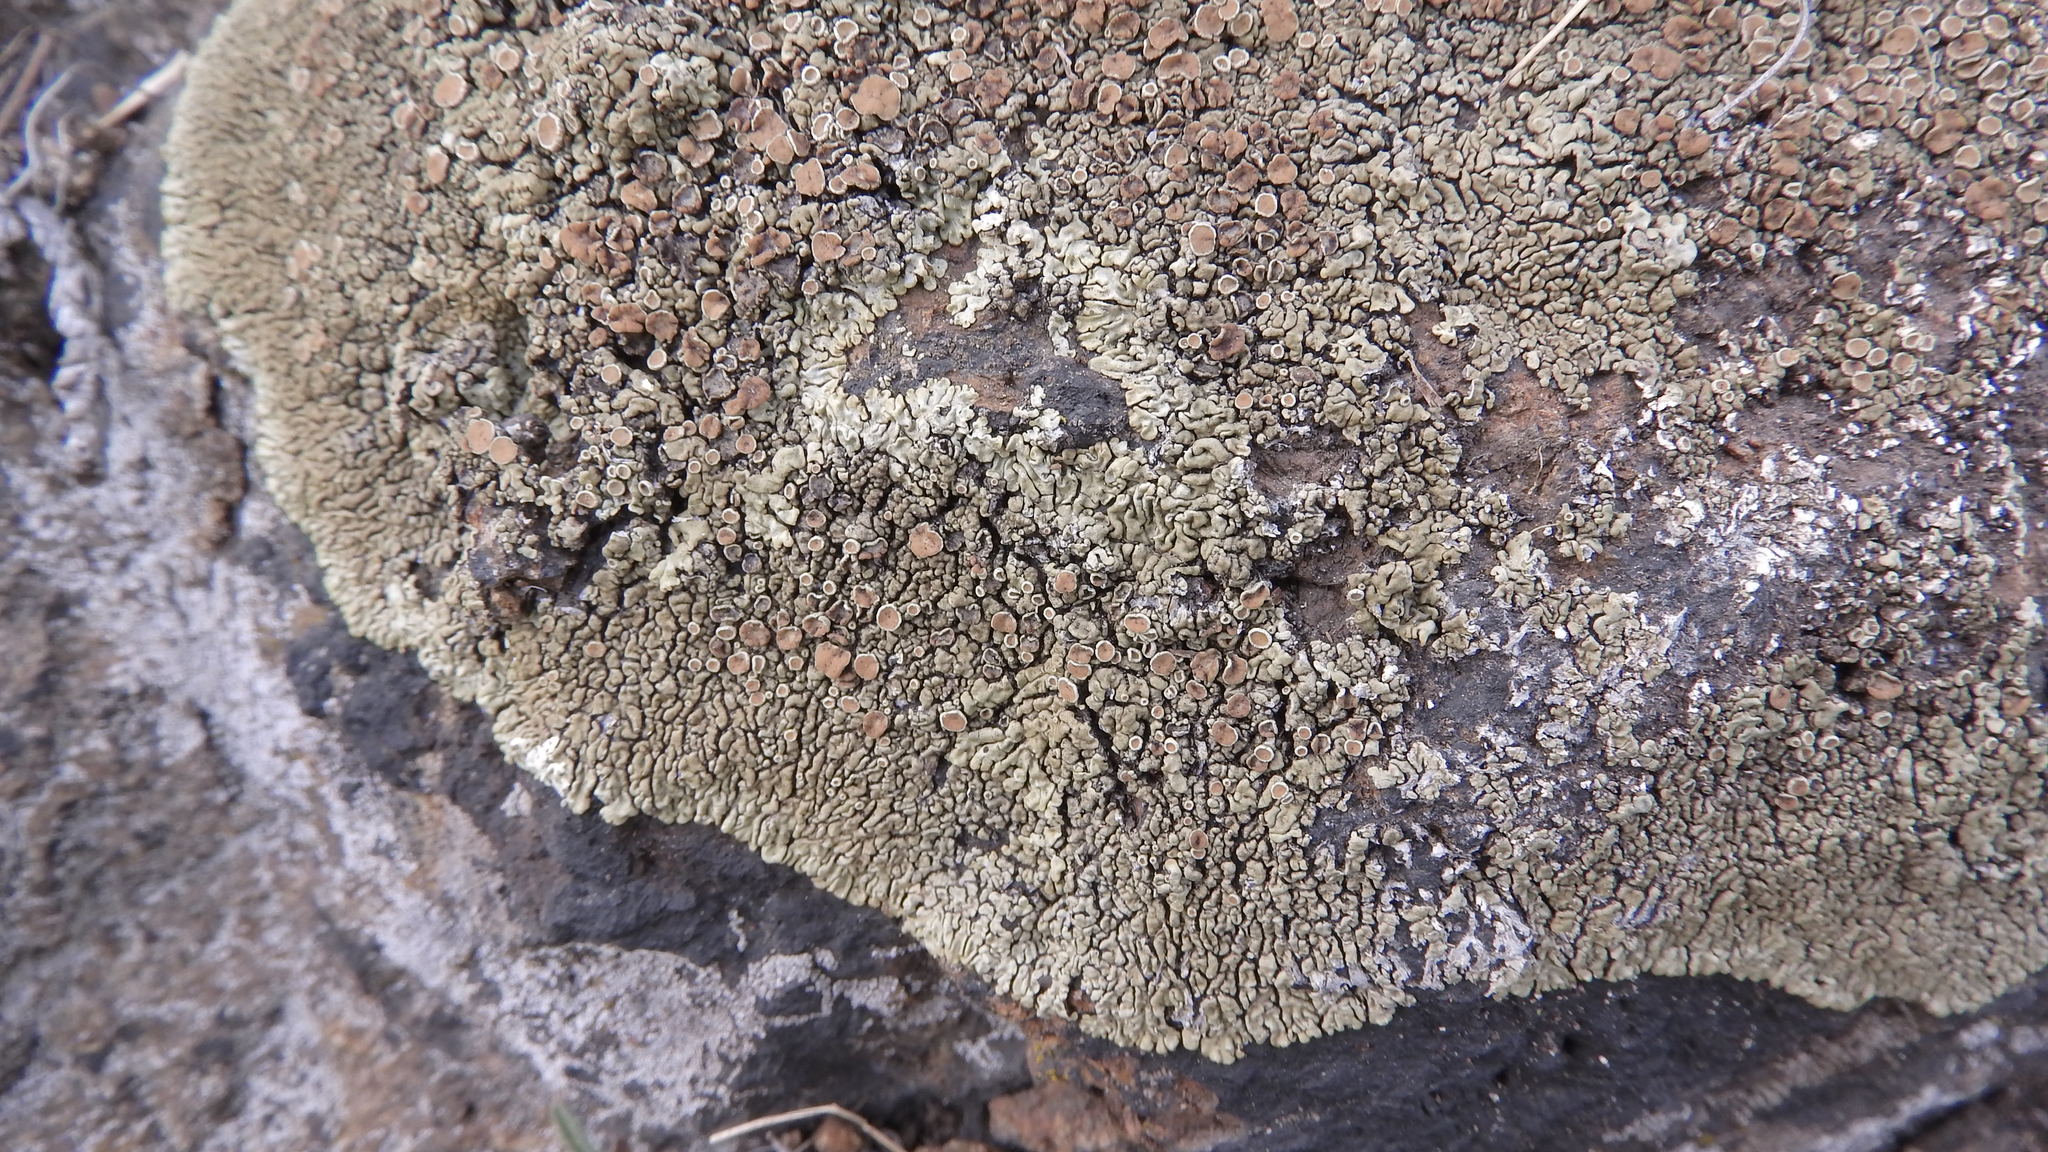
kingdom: Fungi
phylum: Ascomycota
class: Lecanoromycetes
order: Lecanorales
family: Lecanoraceae
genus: Protoparmeliopsis
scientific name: Protoparmeliopsis garovaglii
